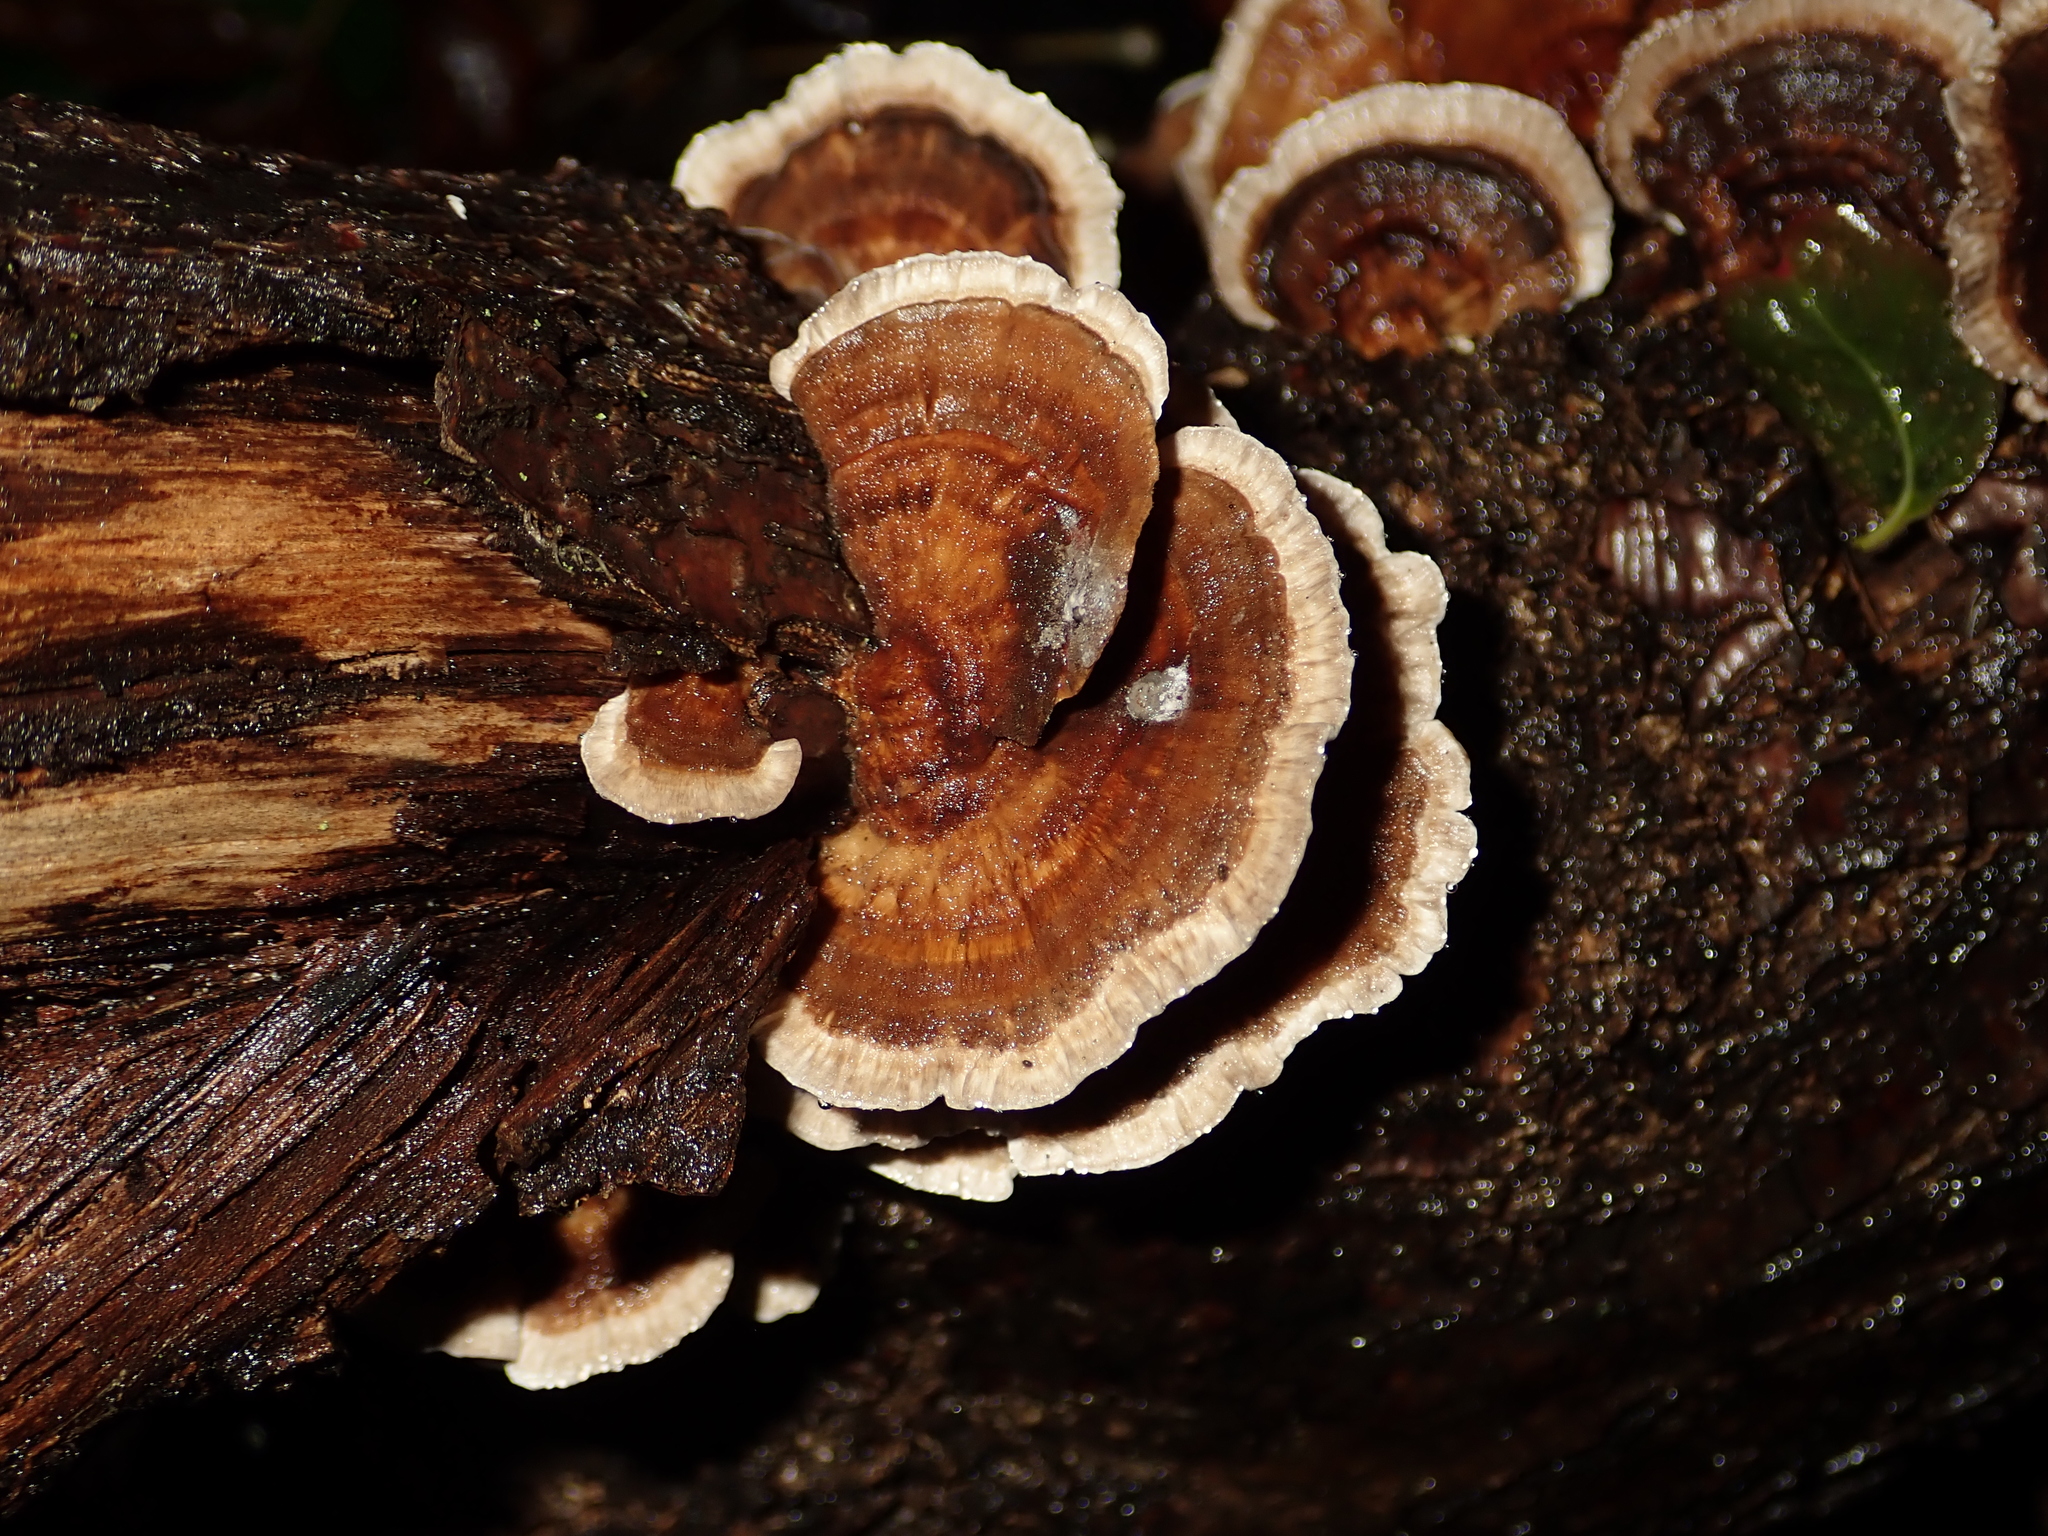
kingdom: Fungi
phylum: Basidiomycota
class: Agaricomycetes
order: Polyporales
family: Polyporaceae
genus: Trametes
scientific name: Trametes versicolor
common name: Turkeytail
